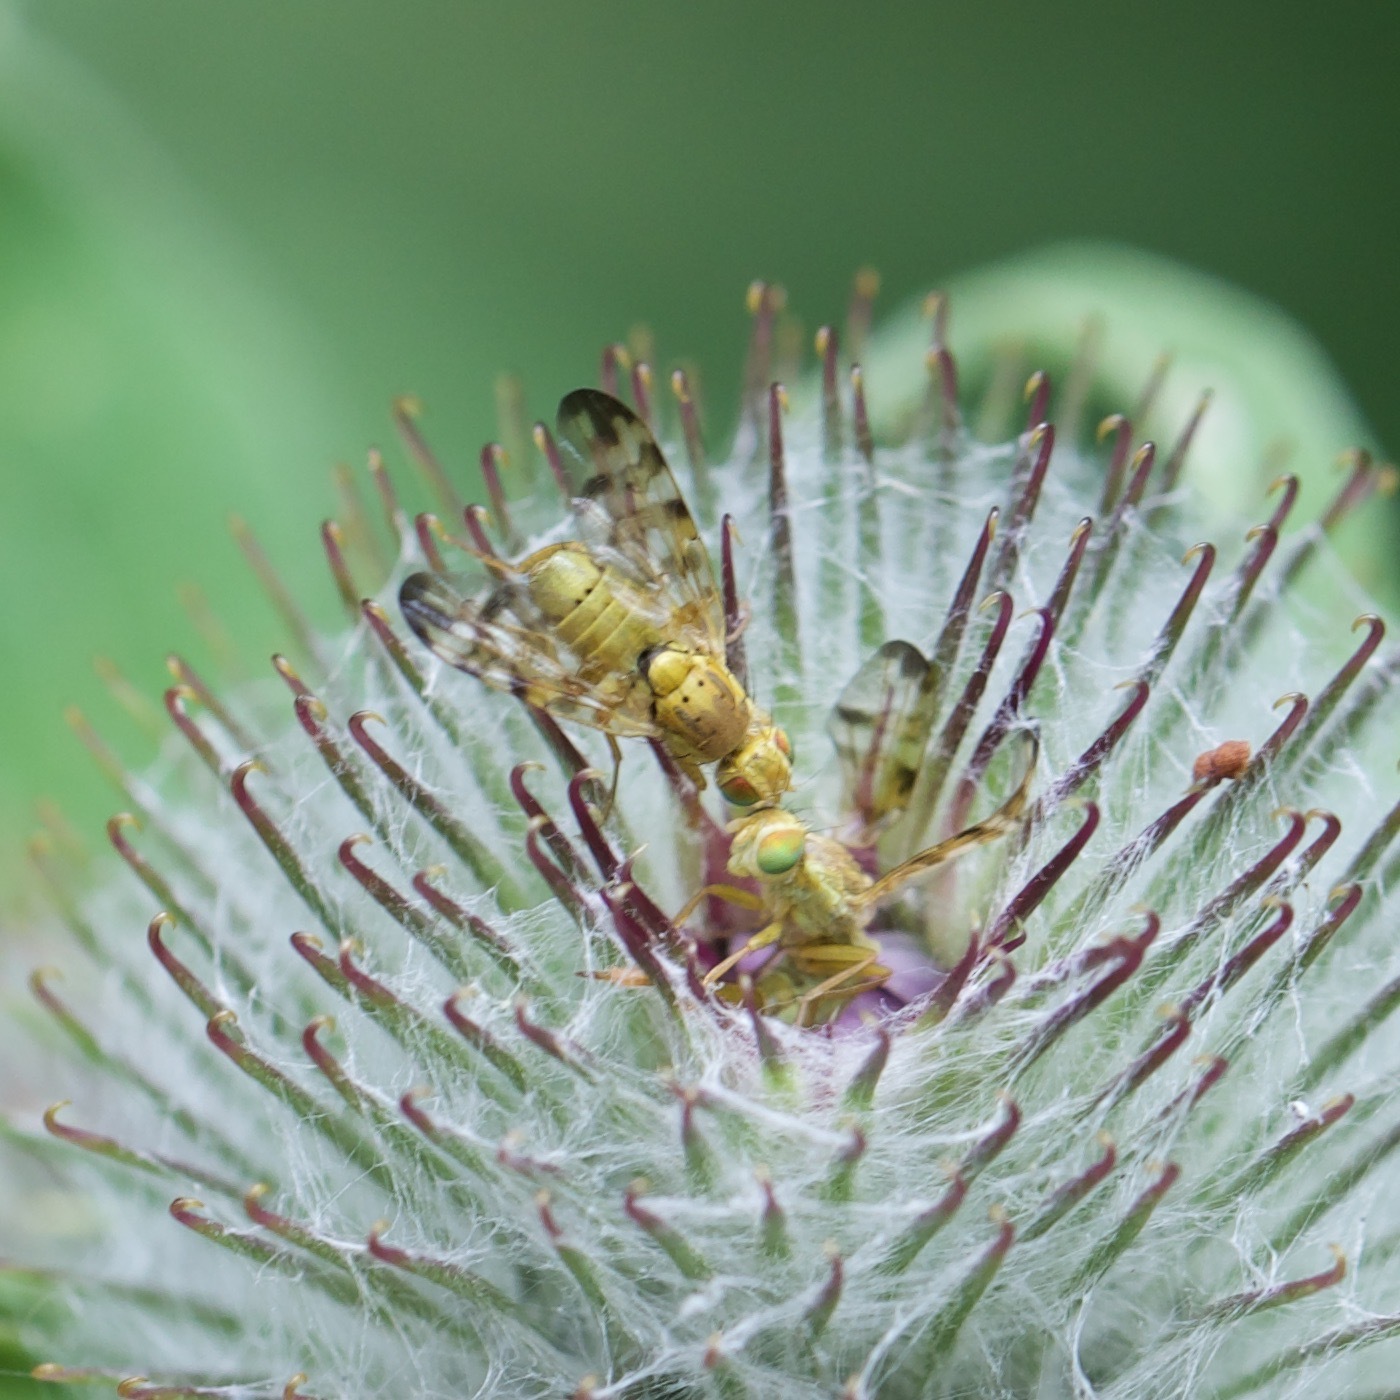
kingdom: Animalia
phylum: Arthropoda
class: Insecta
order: Diptera
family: Tephritidae
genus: Terellia
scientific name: Terellia tussilaginis
